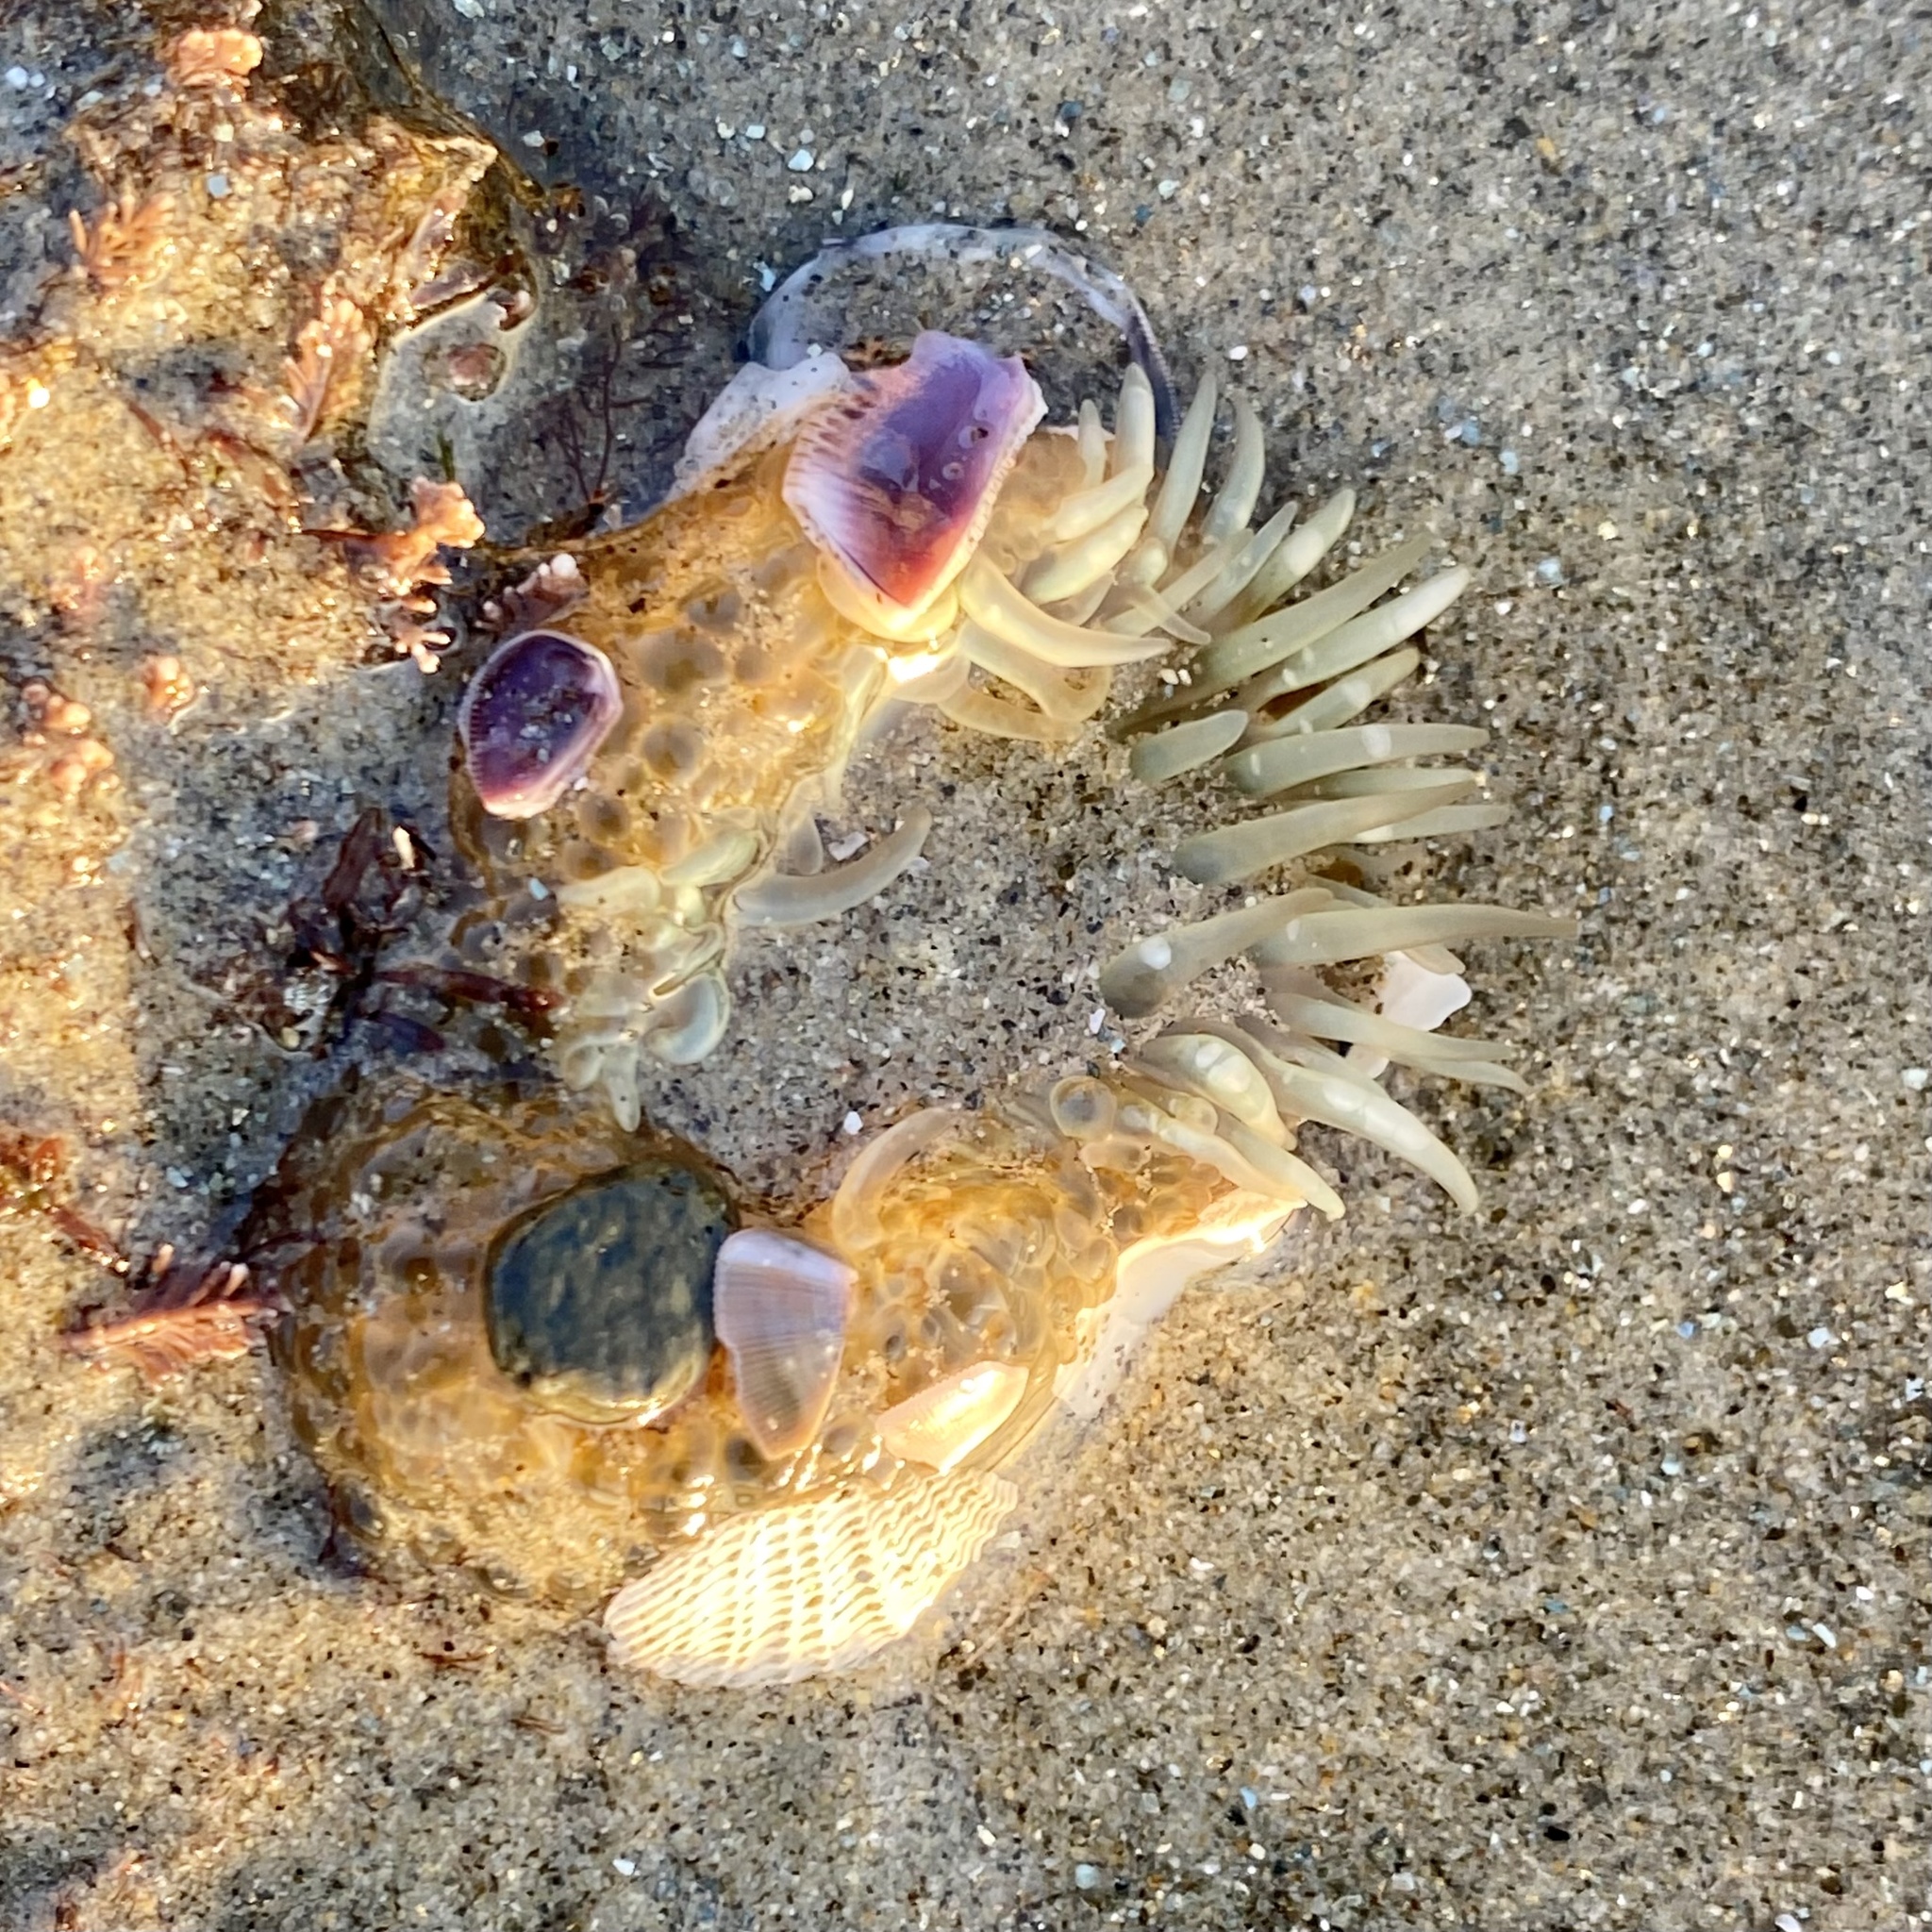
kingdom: Animalia
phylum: Cnidaria
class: Anthozoa
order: Actiniaria
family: Actiniidae
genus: Anthopleura
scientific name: Anthopleura elegantissima
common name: Clonal anemone
